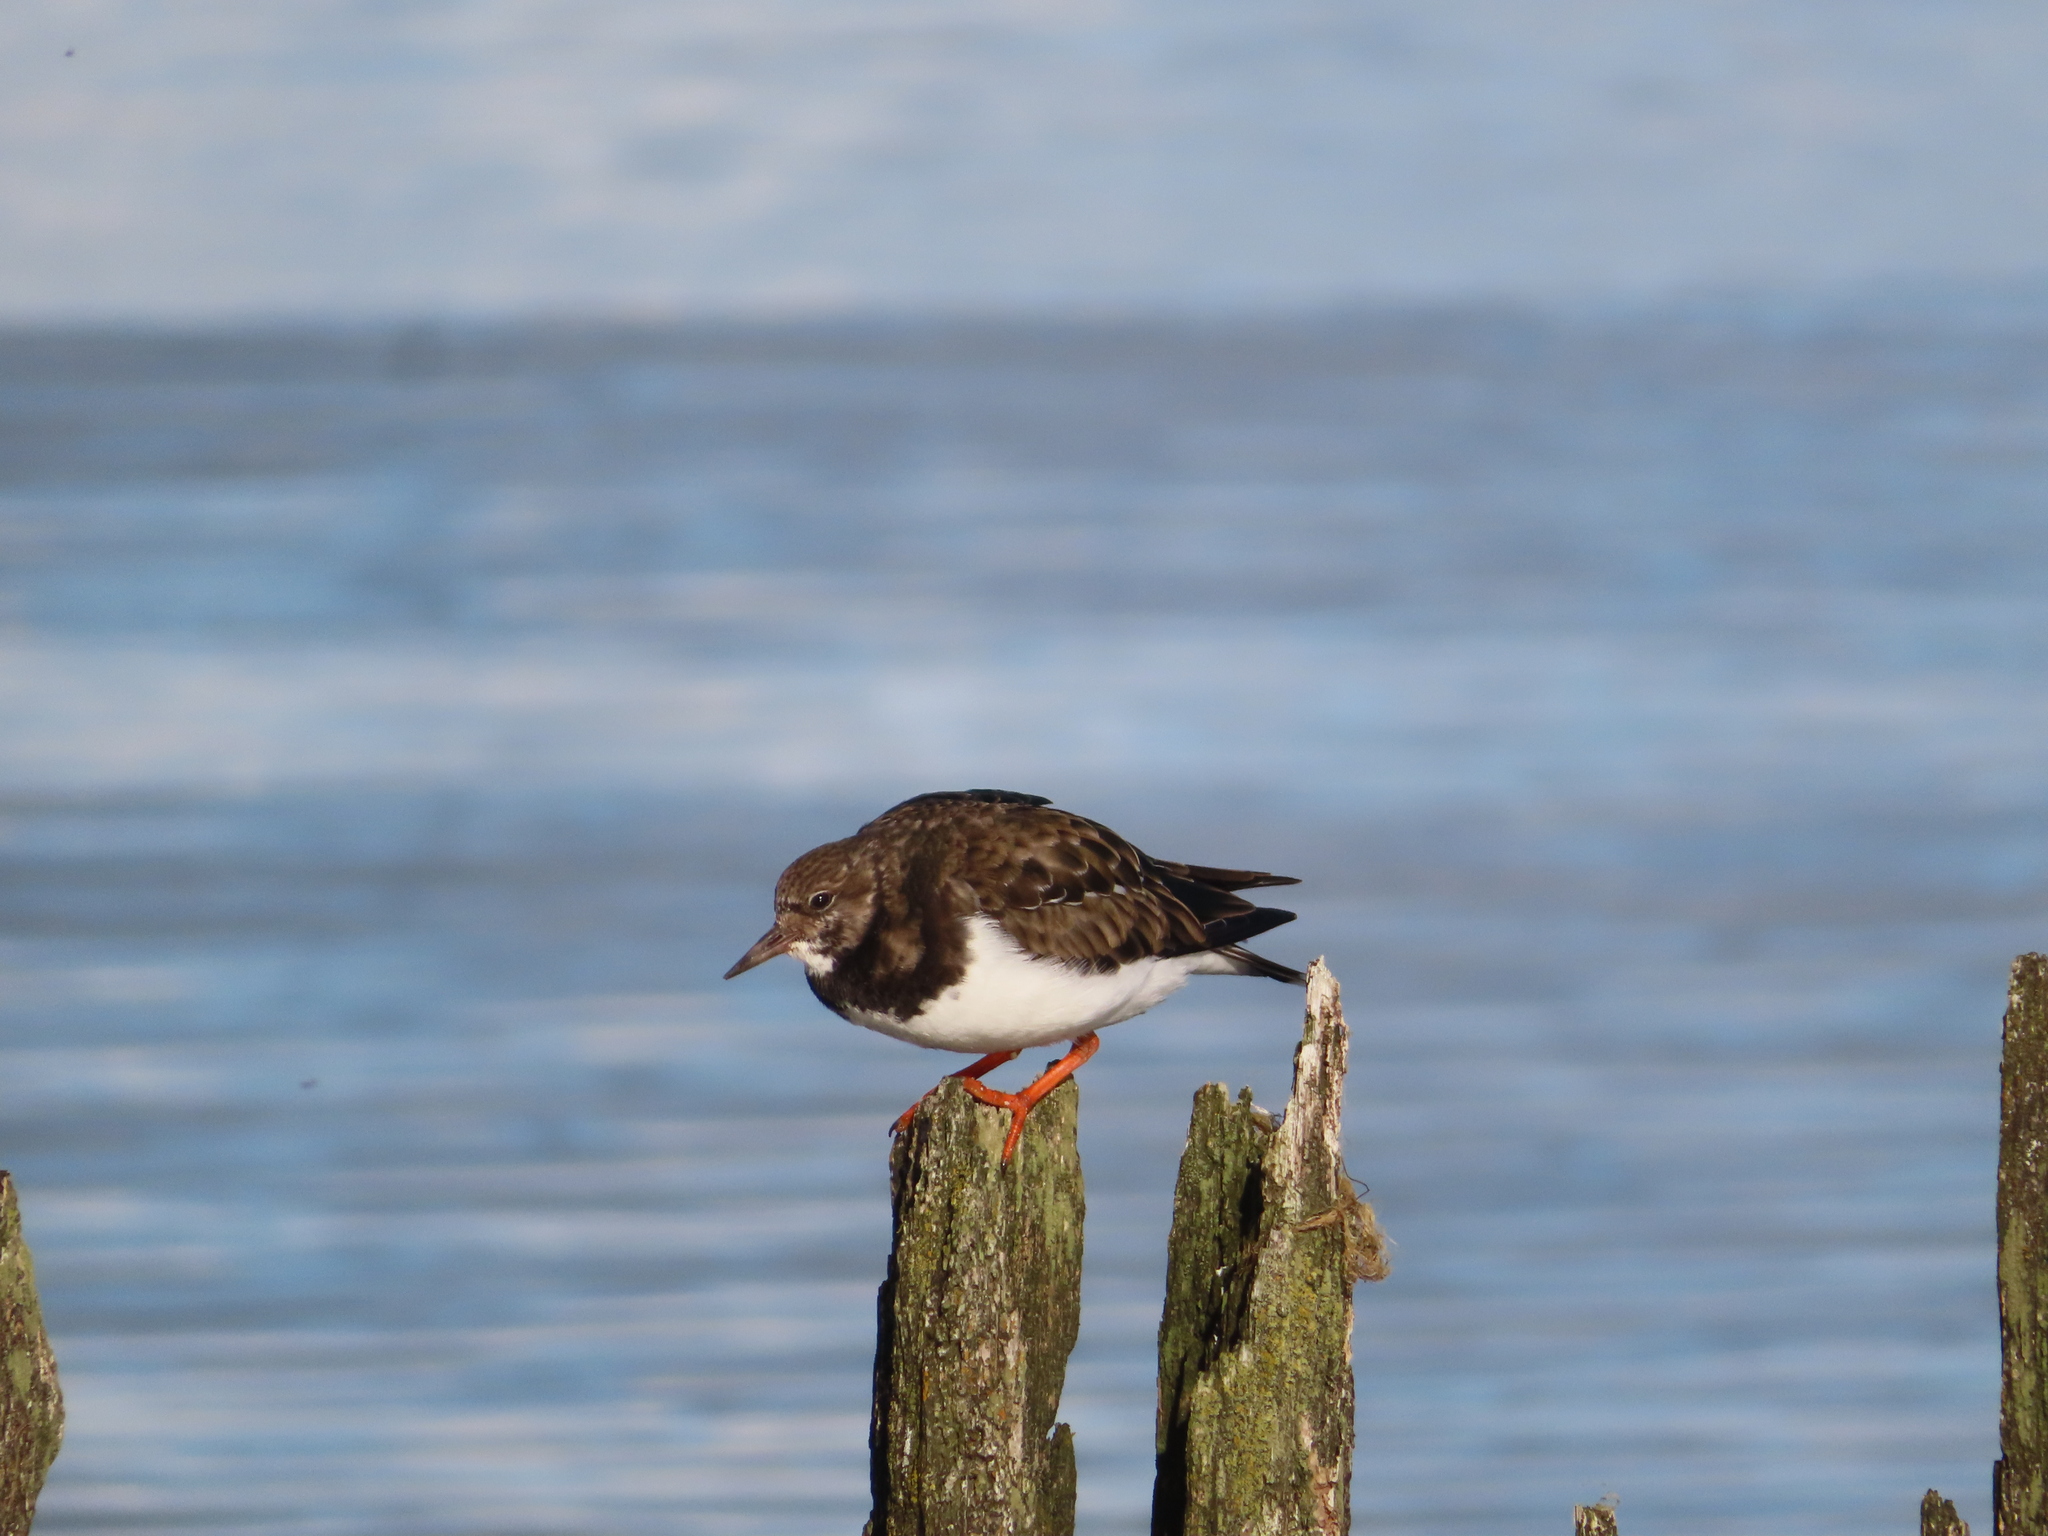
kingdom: Animalia
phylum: Chordata
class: Aves
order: Charadriiformes
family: Scolopacidae
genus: Arenaria
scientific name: Arenaria interpres
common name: Ruddy turnstone
